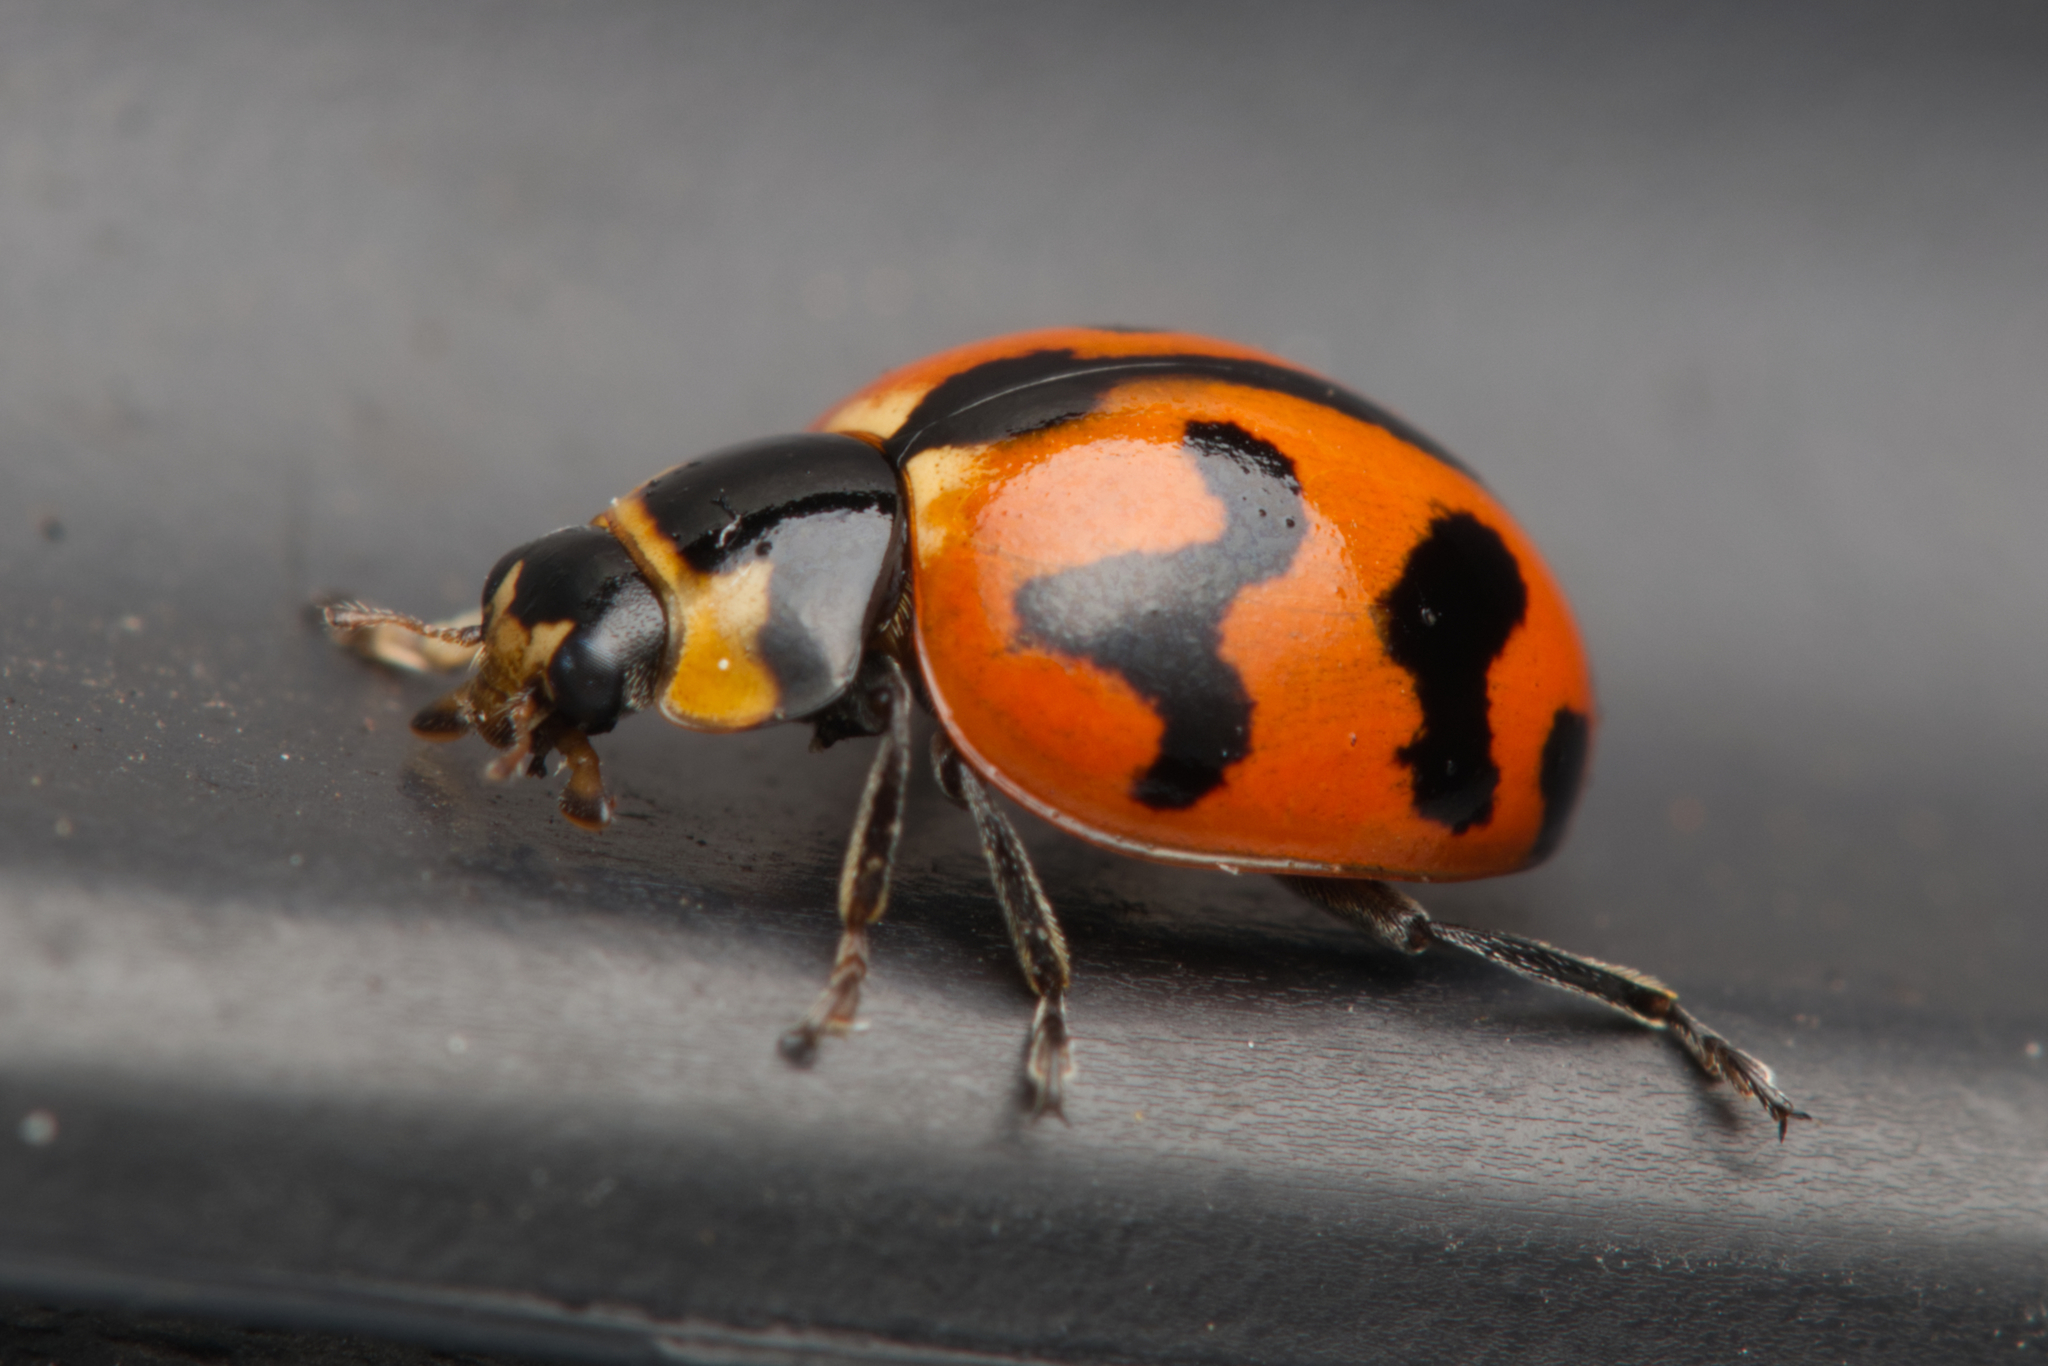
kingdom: Animalia
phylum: Arthropoda
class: Insecta
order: Coleoptera
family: Coccinellidae
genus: Coccinella
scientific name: Coccinella transversalis
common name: Transverse lady beetle
